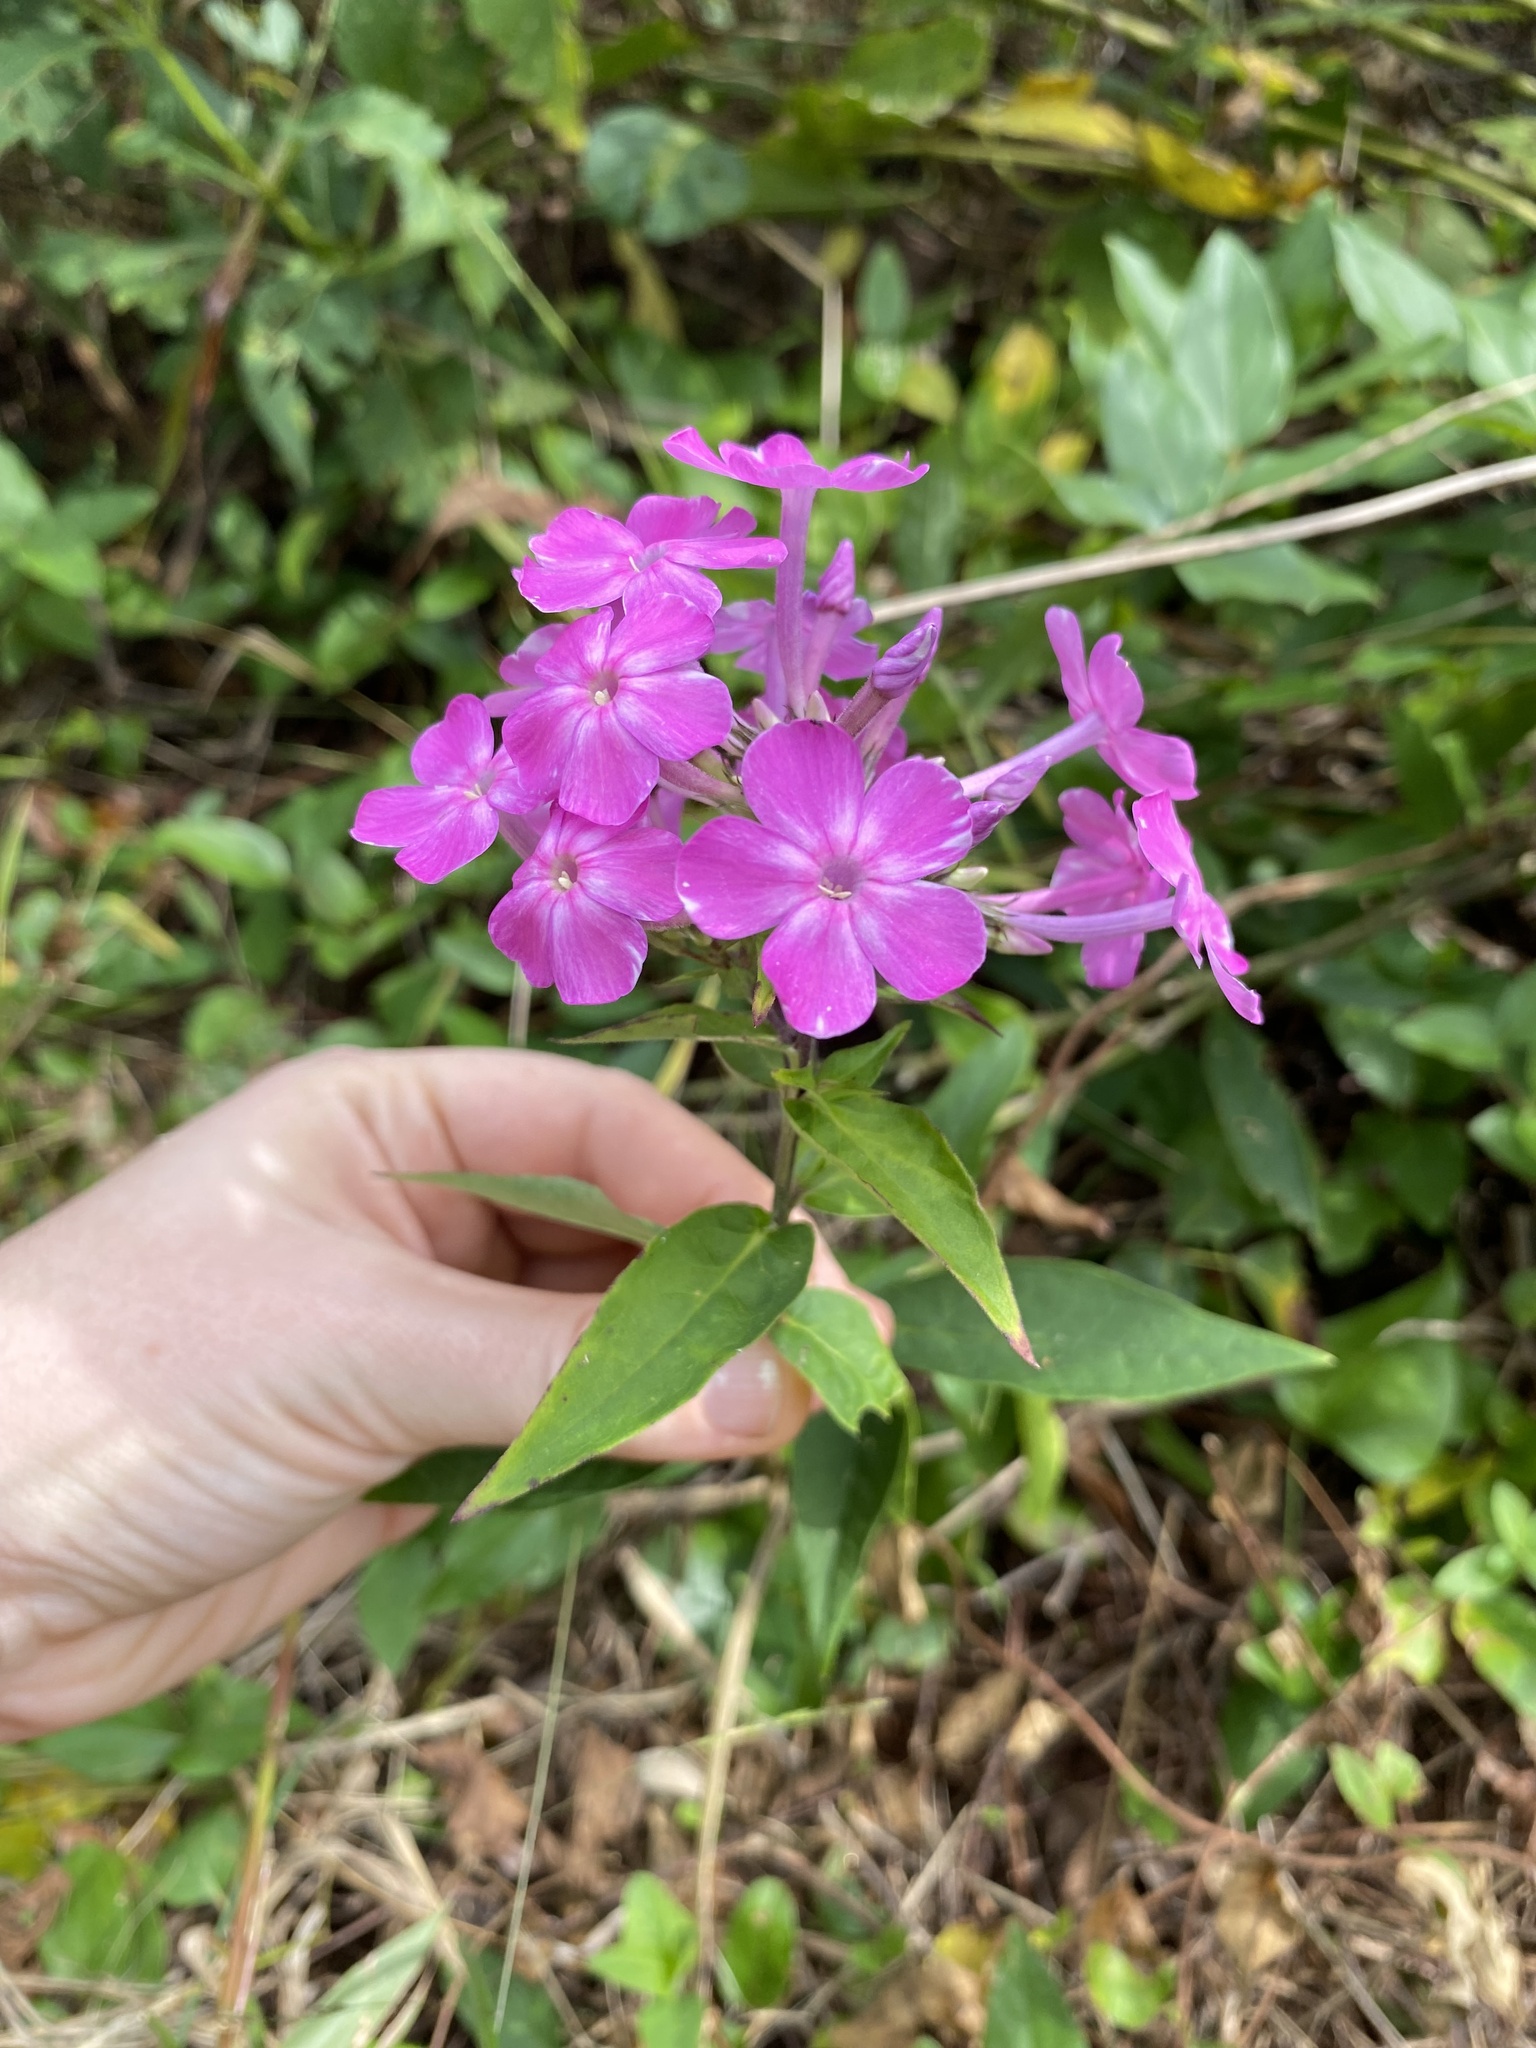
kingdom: Plantae
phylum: Tracheophyta
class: Magnoliopsida
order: Ericales
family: Polemoniaceae
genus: Phlox
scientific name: Phlox paniculata
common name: Fall phlox
